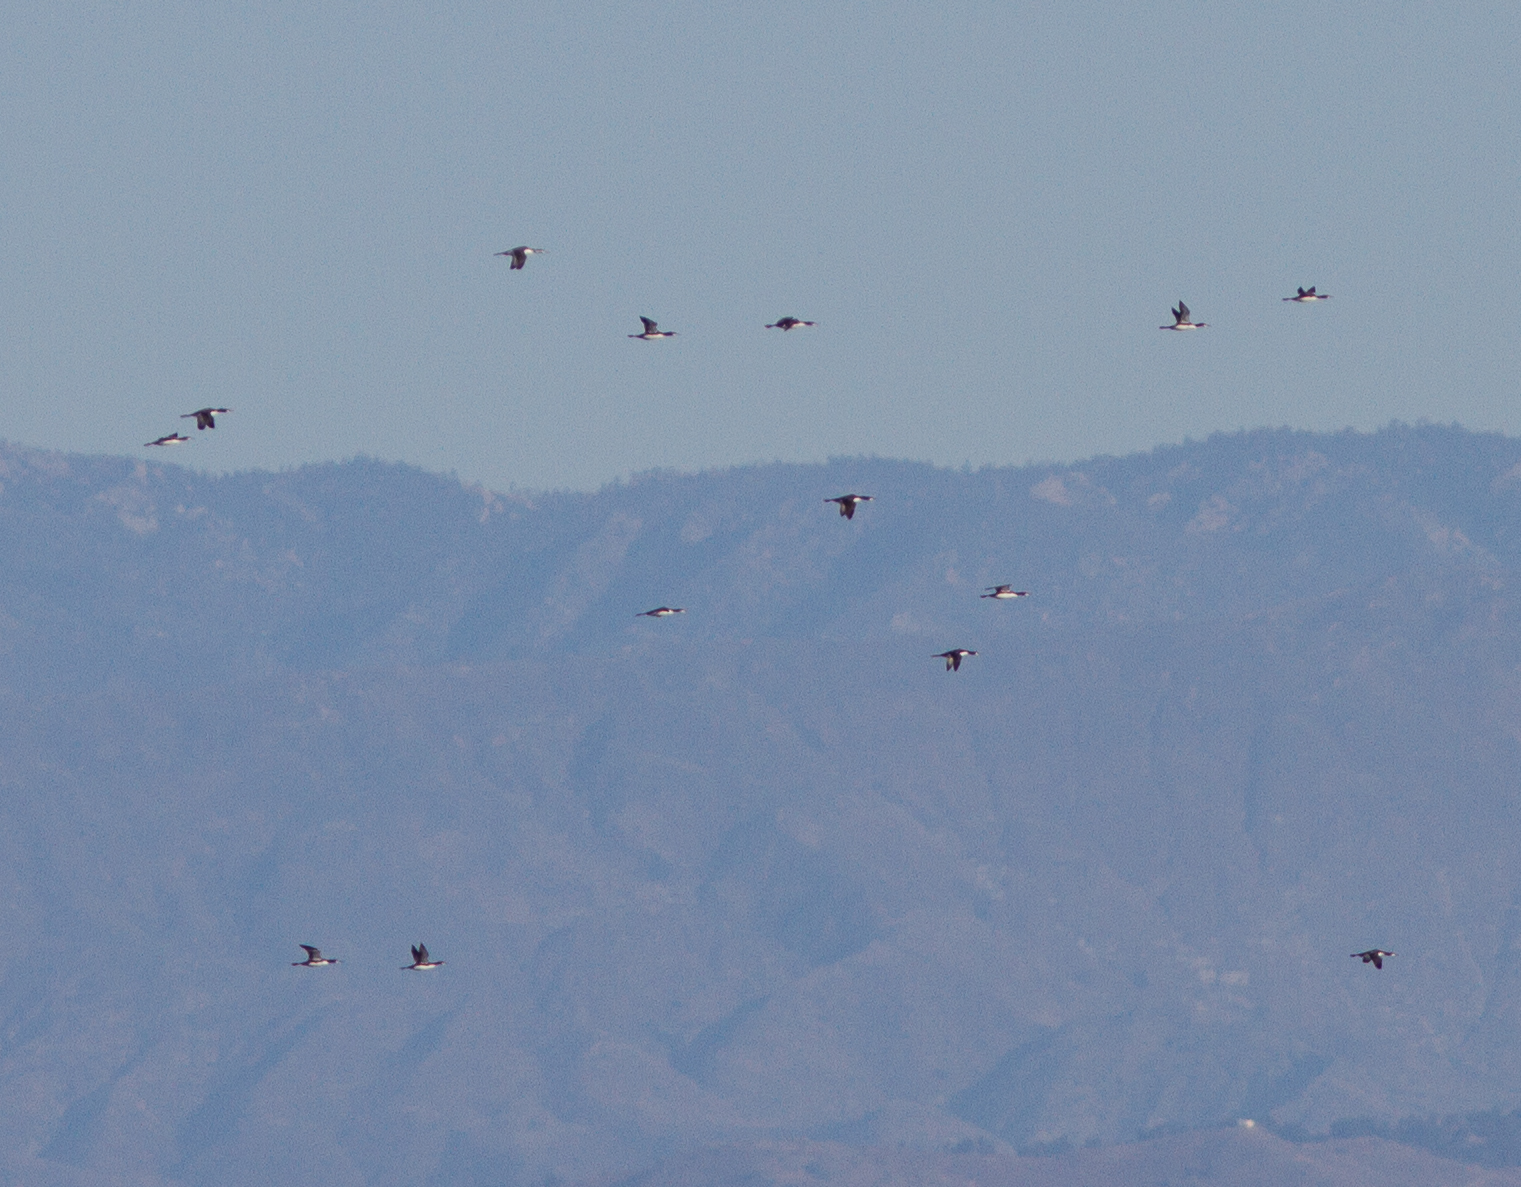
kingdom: Animalia
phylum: Chordata
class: Aves
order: Gaviiformes
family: Gaviidae
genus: Gavia
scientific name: Gavia pacifica
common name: Pacific loon
